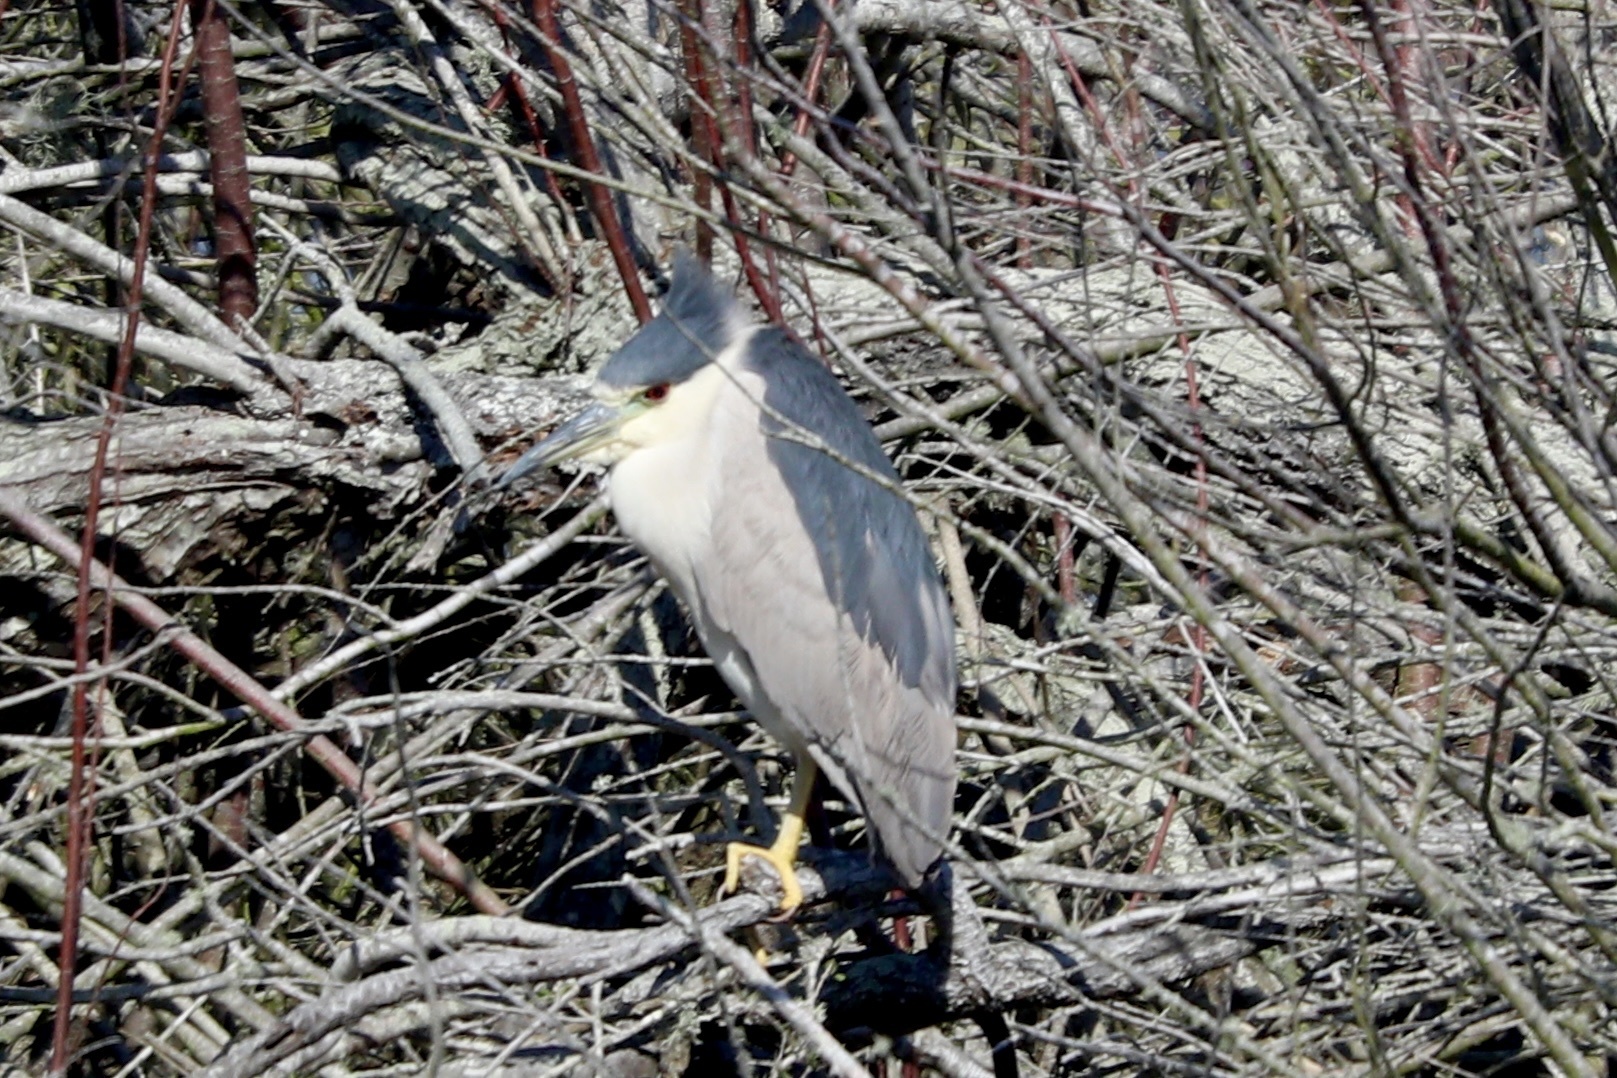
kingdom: Animalia
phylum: Chordata
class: Aves
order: Pelecaniformes
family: Ardeidae
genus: Nycticorax
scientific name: Nycticorax nycticorax
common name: Black-crowned night heron
